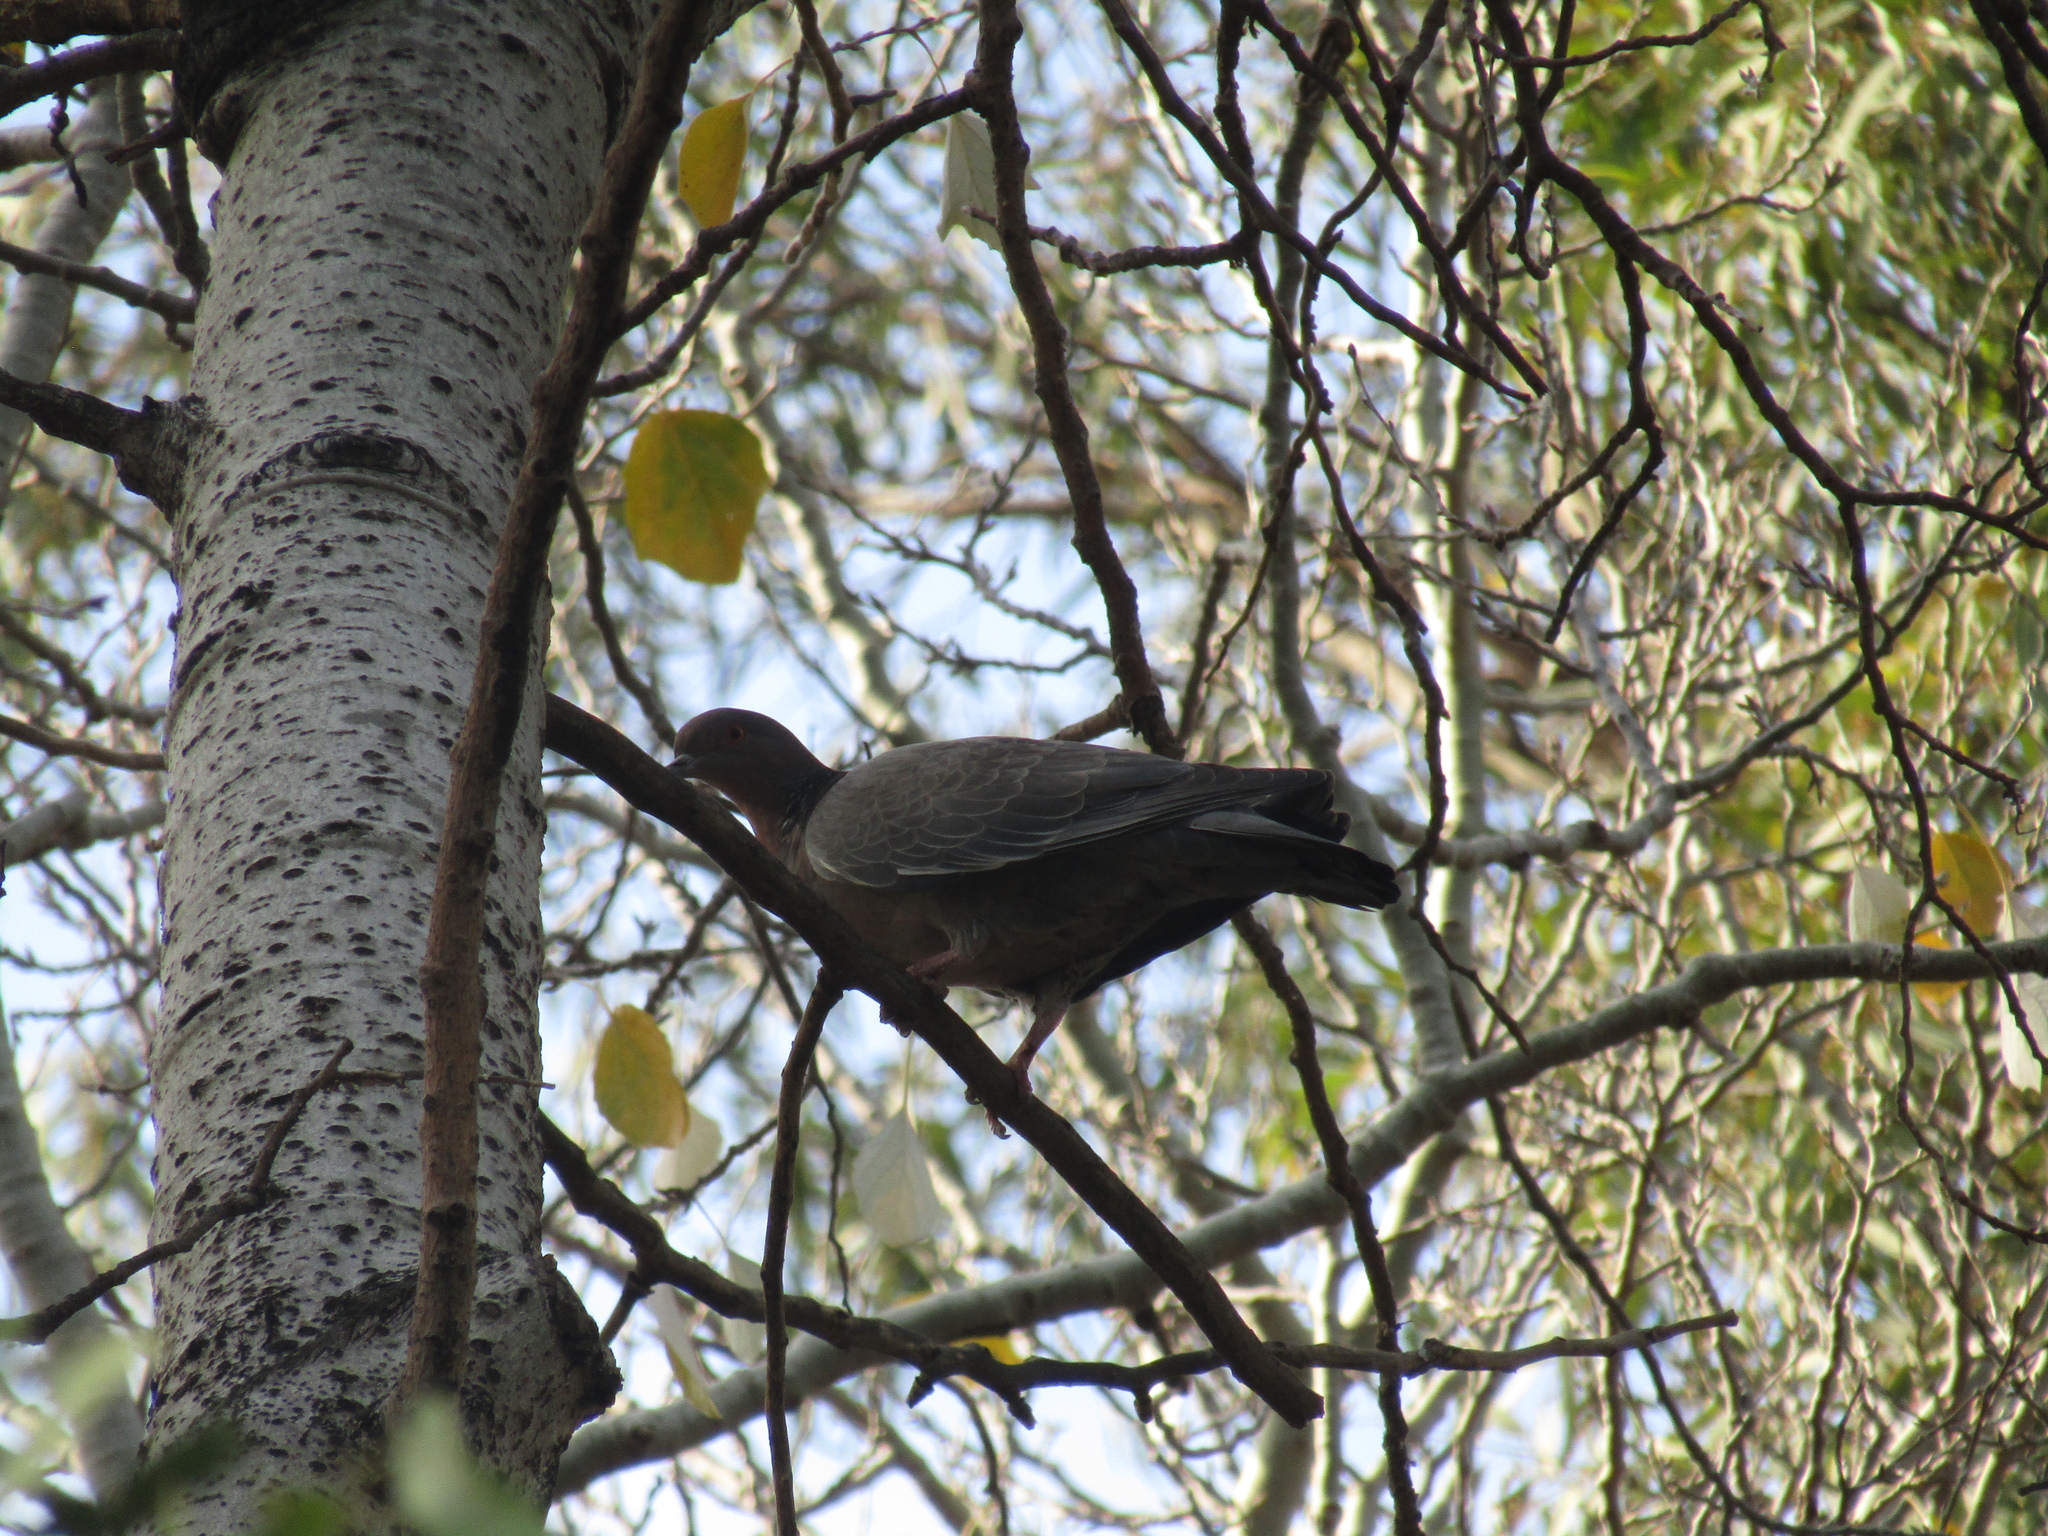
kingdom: Animalia
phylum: Chordata
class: Aves
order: Columbiformes
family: Columbidae
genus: Patagioenas
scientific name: Patagioenas picazuro
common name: Picazuro pigeon
